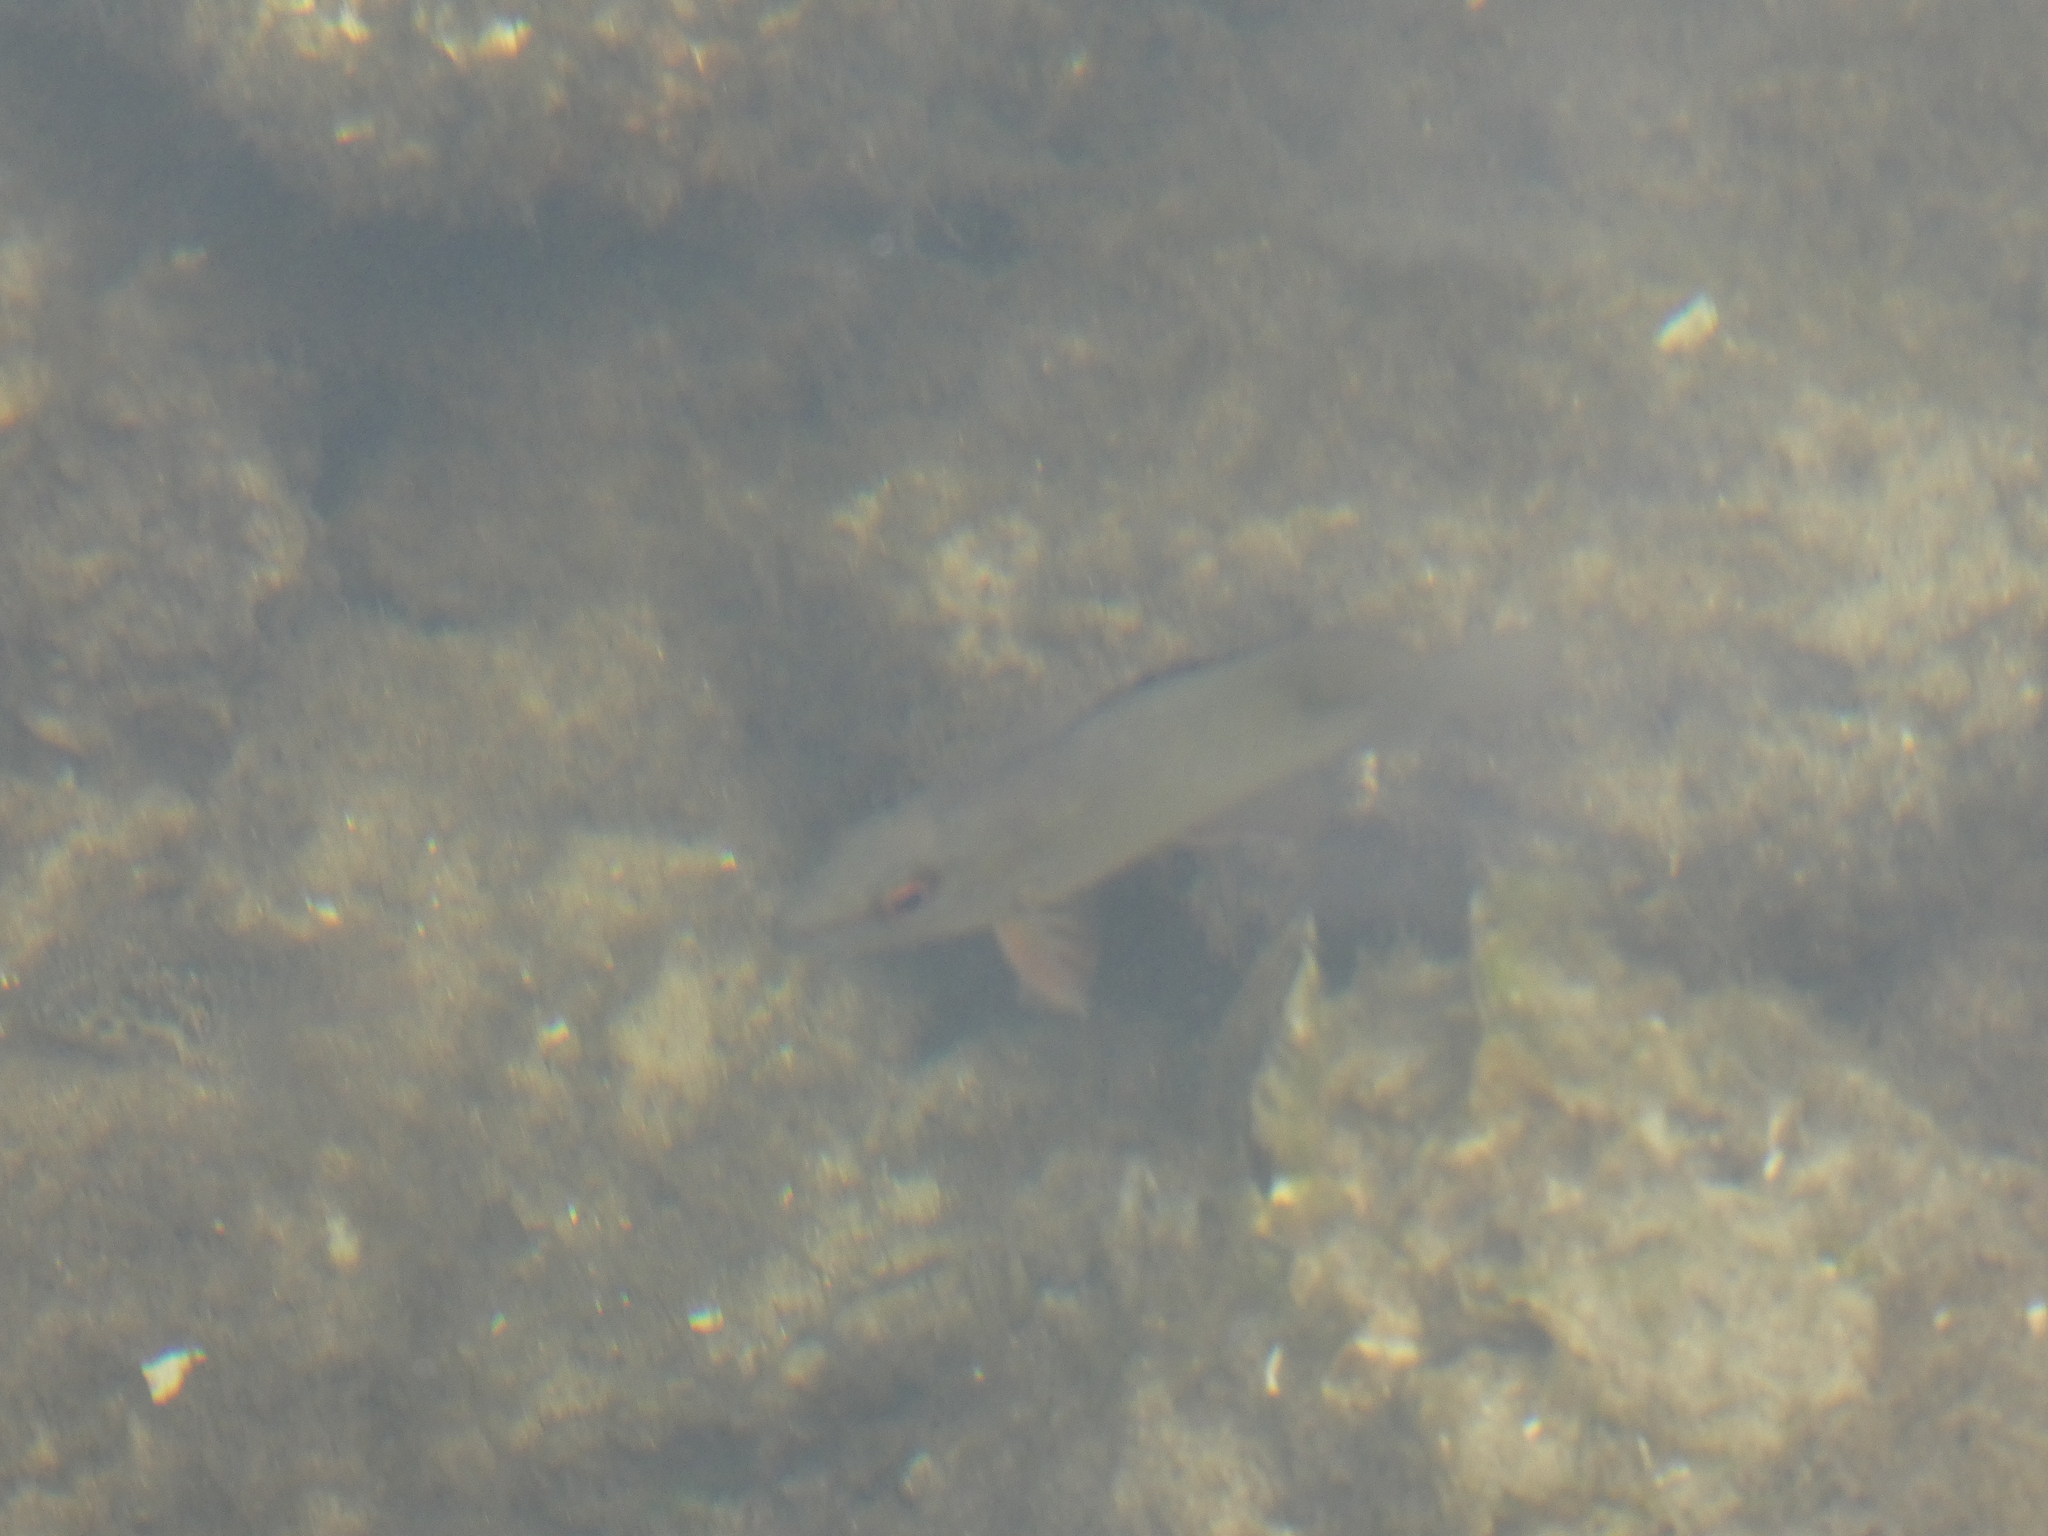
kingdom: Animalia
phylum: Chordata
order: Perciformes
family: Lutjanidae
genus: Lutjanus
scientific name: Lutjanus griseus
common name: Gray snapper
